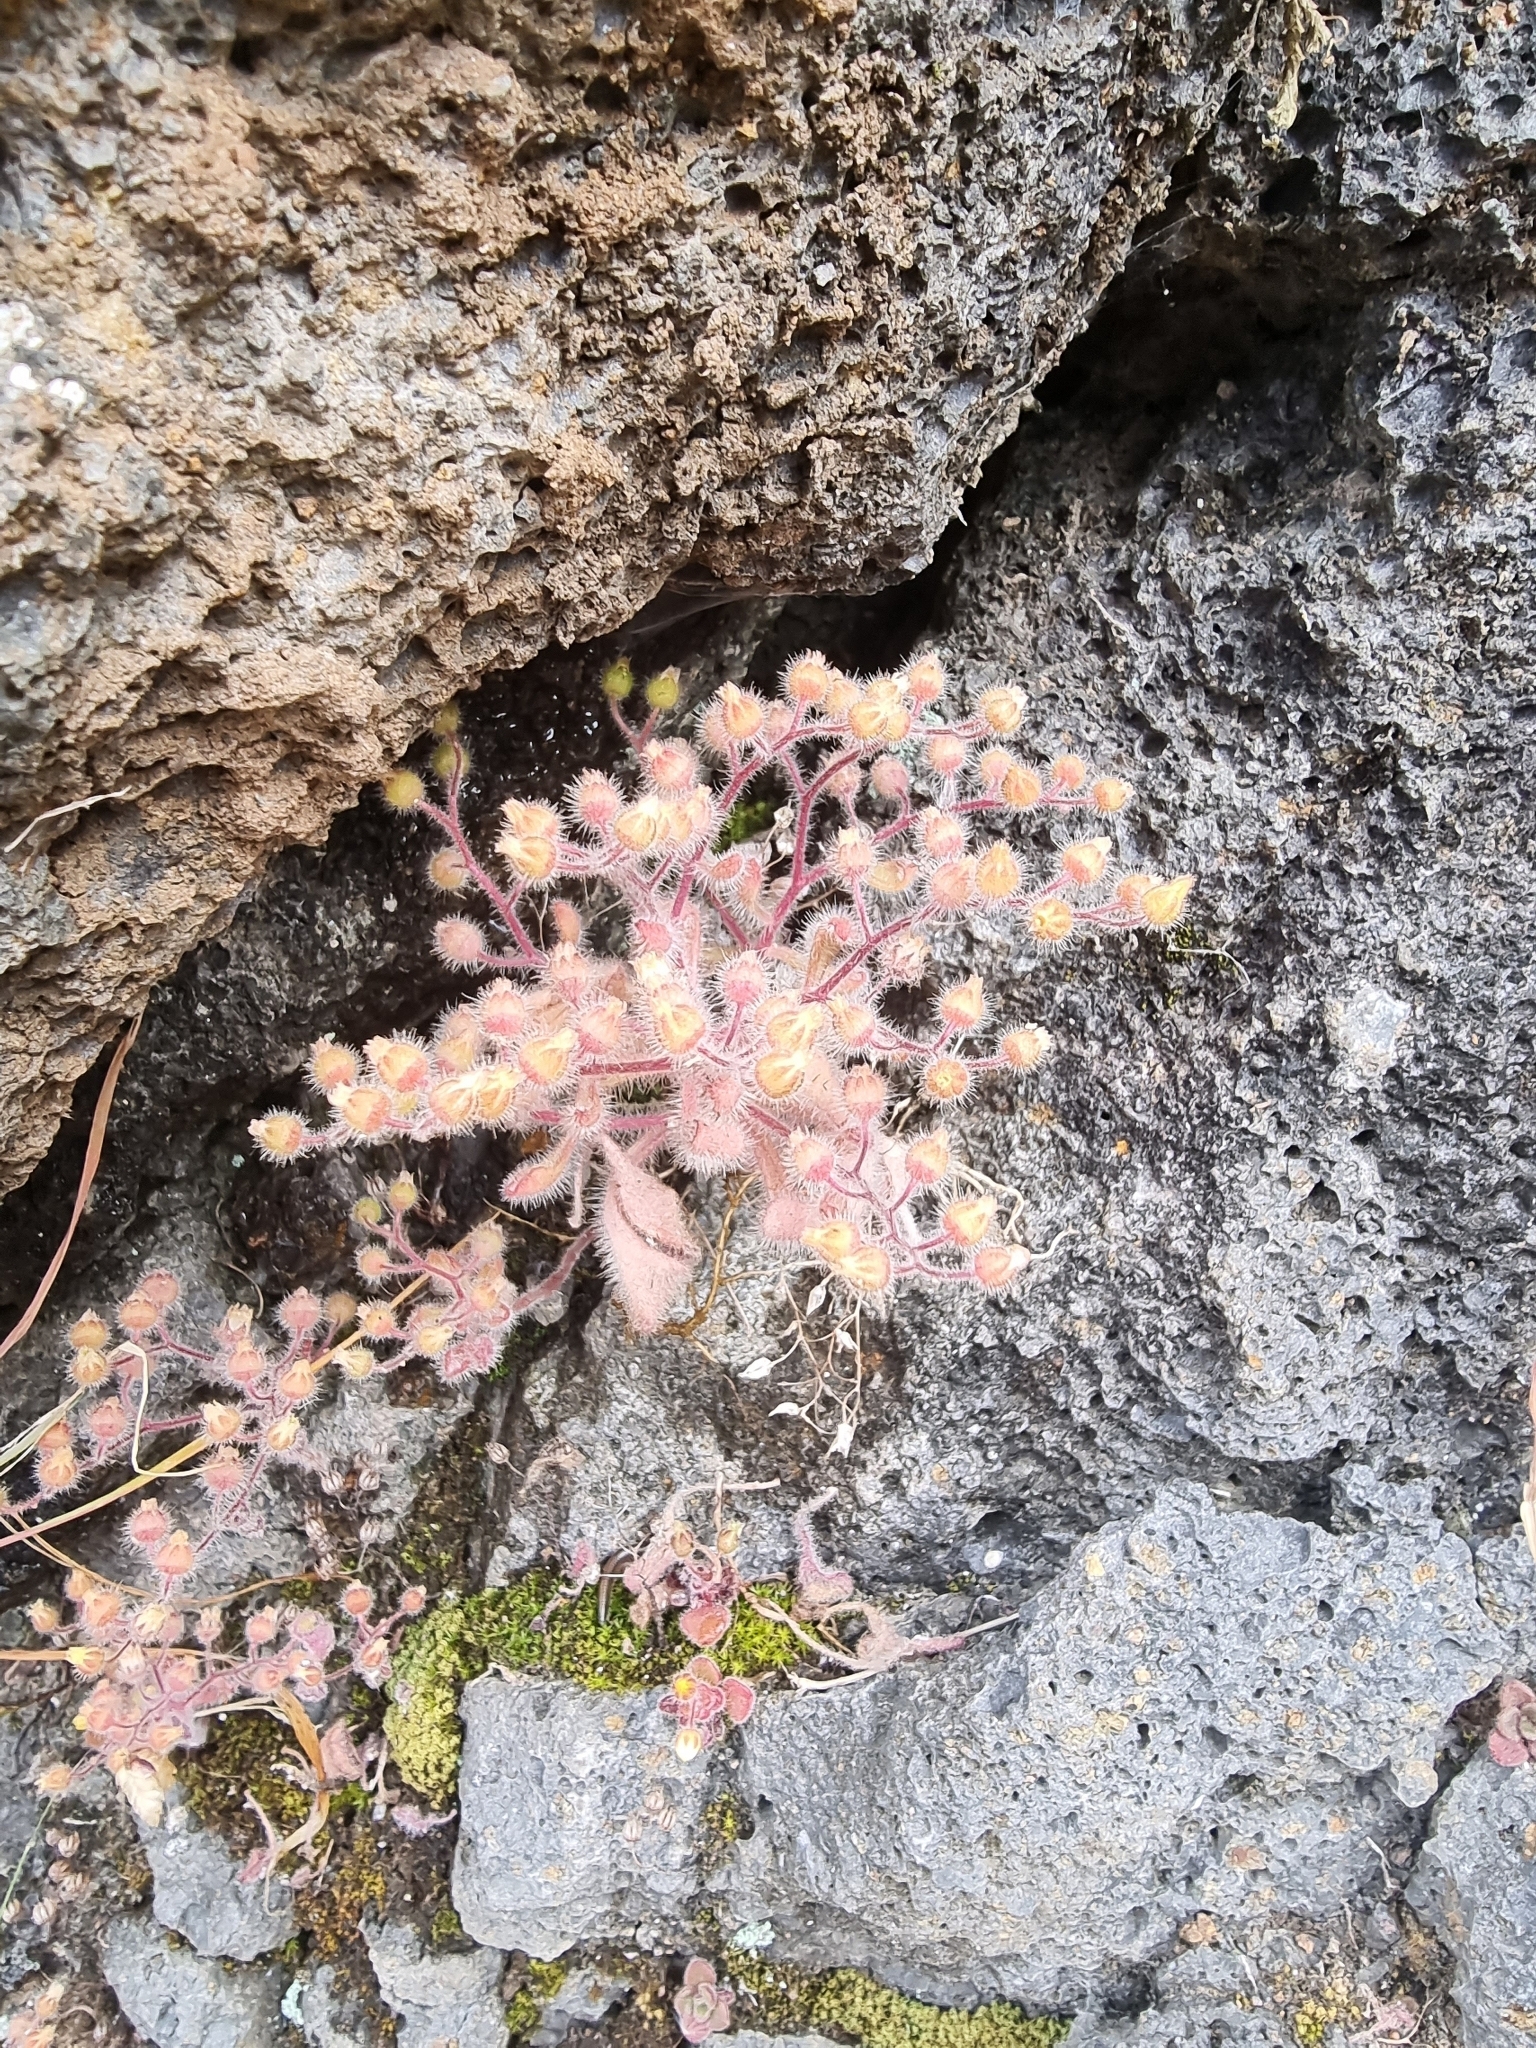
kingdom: Plantae
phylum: Tracheophyta
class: Magnoliopsida
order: Saxifragales
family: Crassulaceae
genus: Aichryson
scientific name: Aichryson villosum
